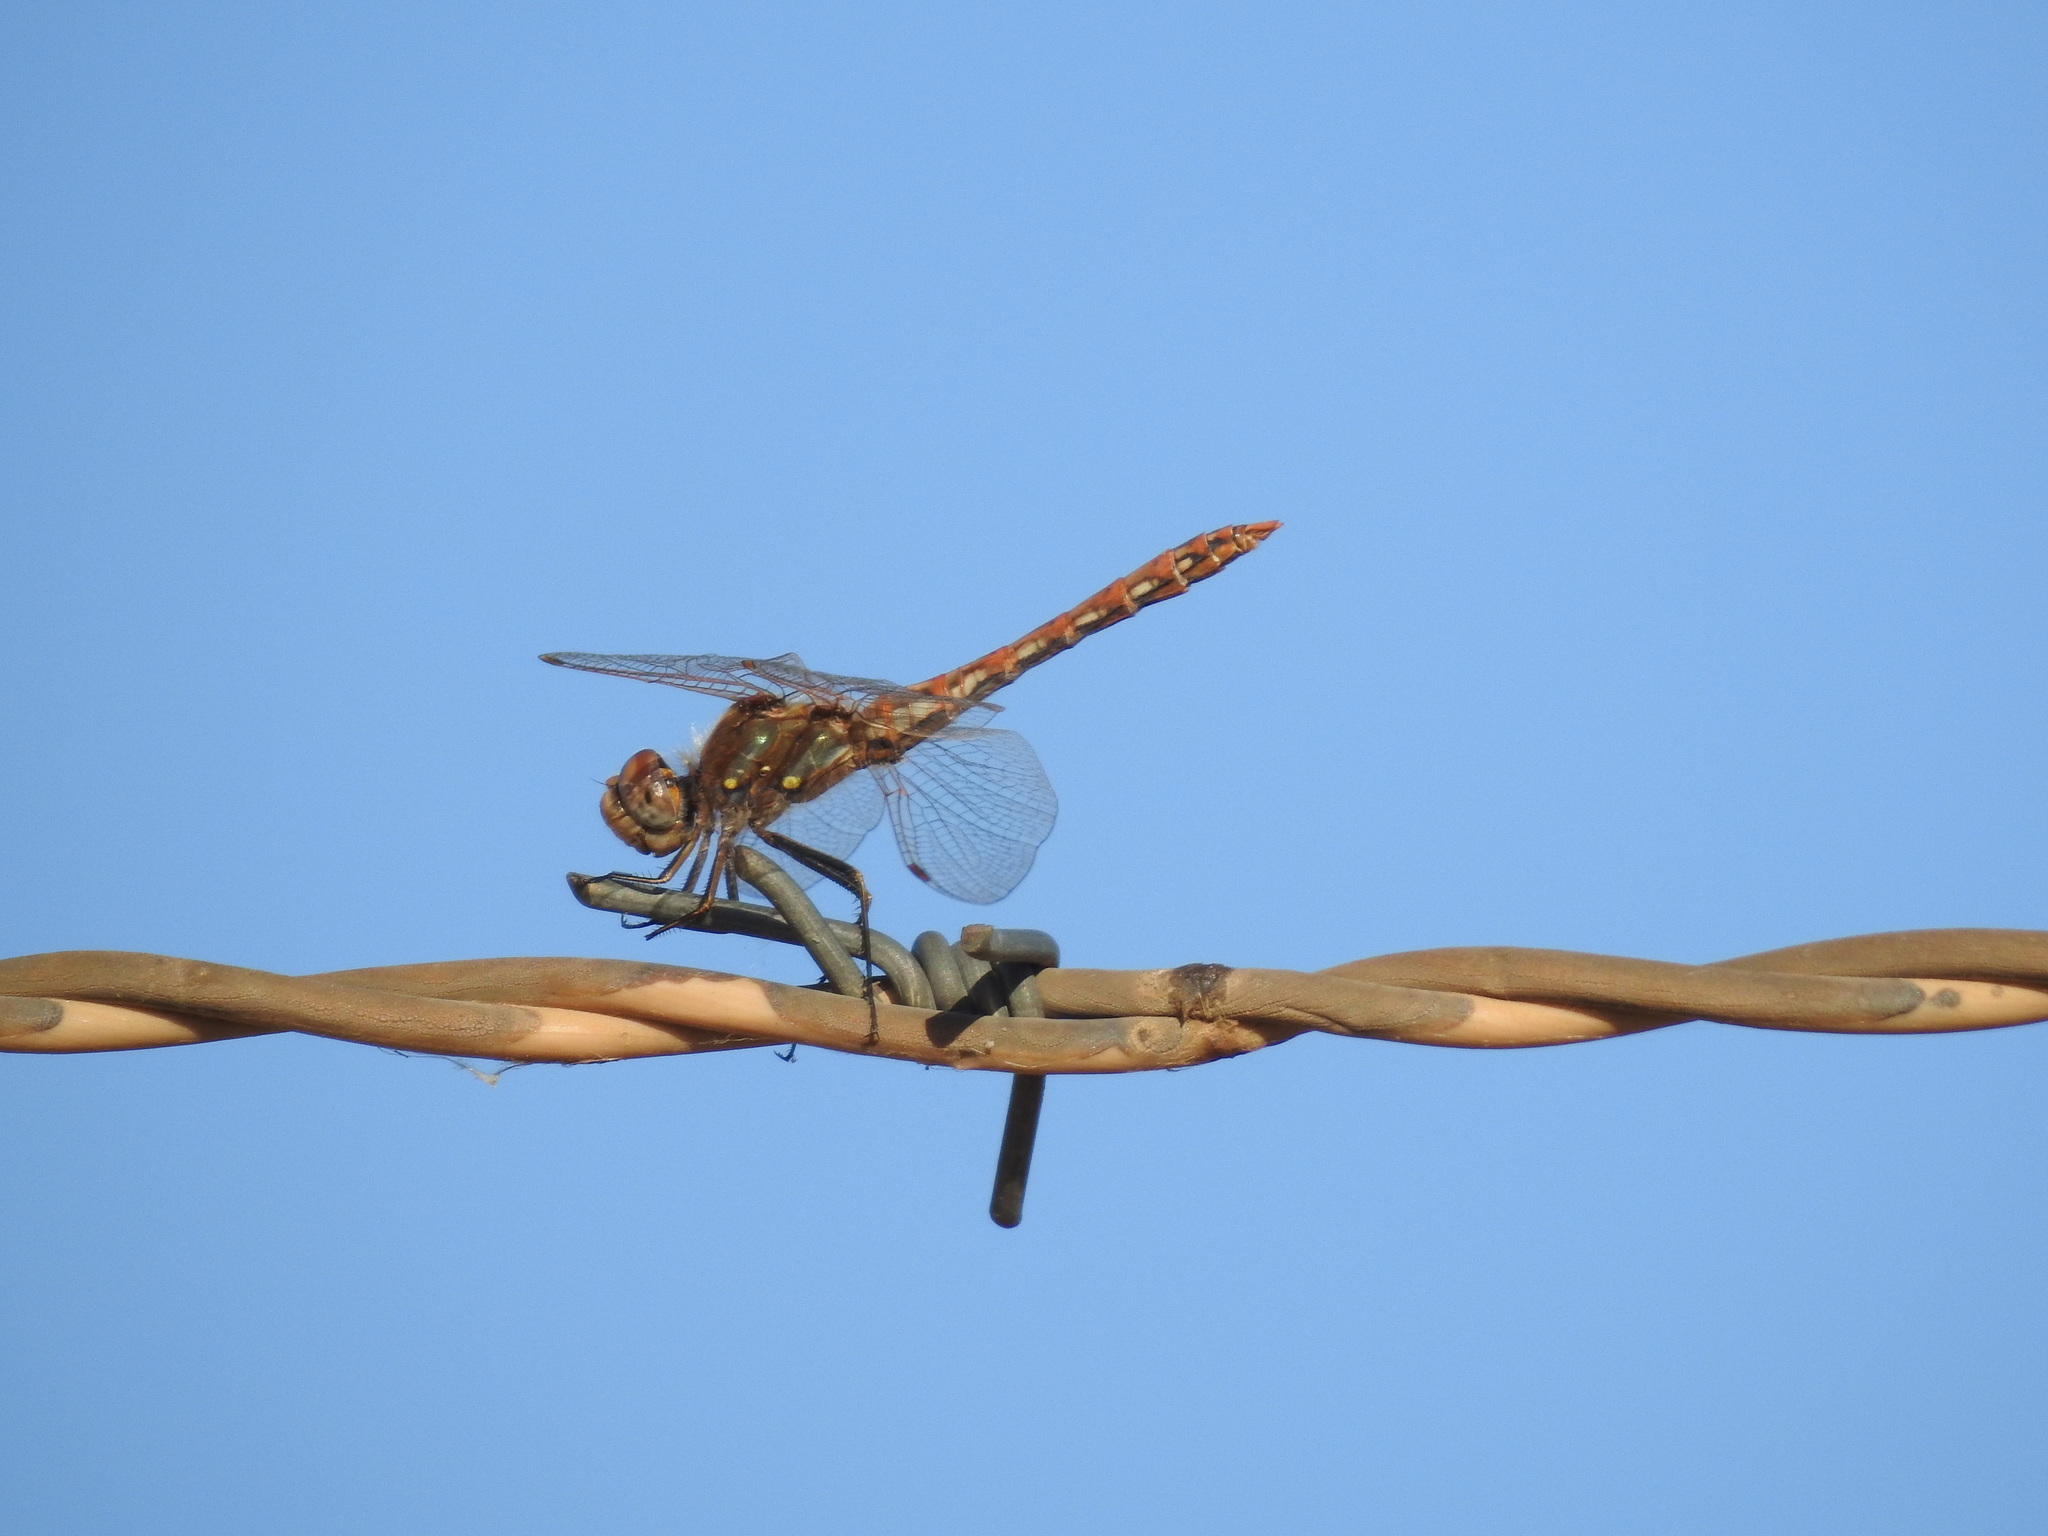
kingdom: Animalia
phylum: Arthropoda
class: Insecta
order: Odonata
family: Libellulidae
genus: Sympetrum
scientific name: Sympetrum corruptum
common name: Variegated meadowhawk
